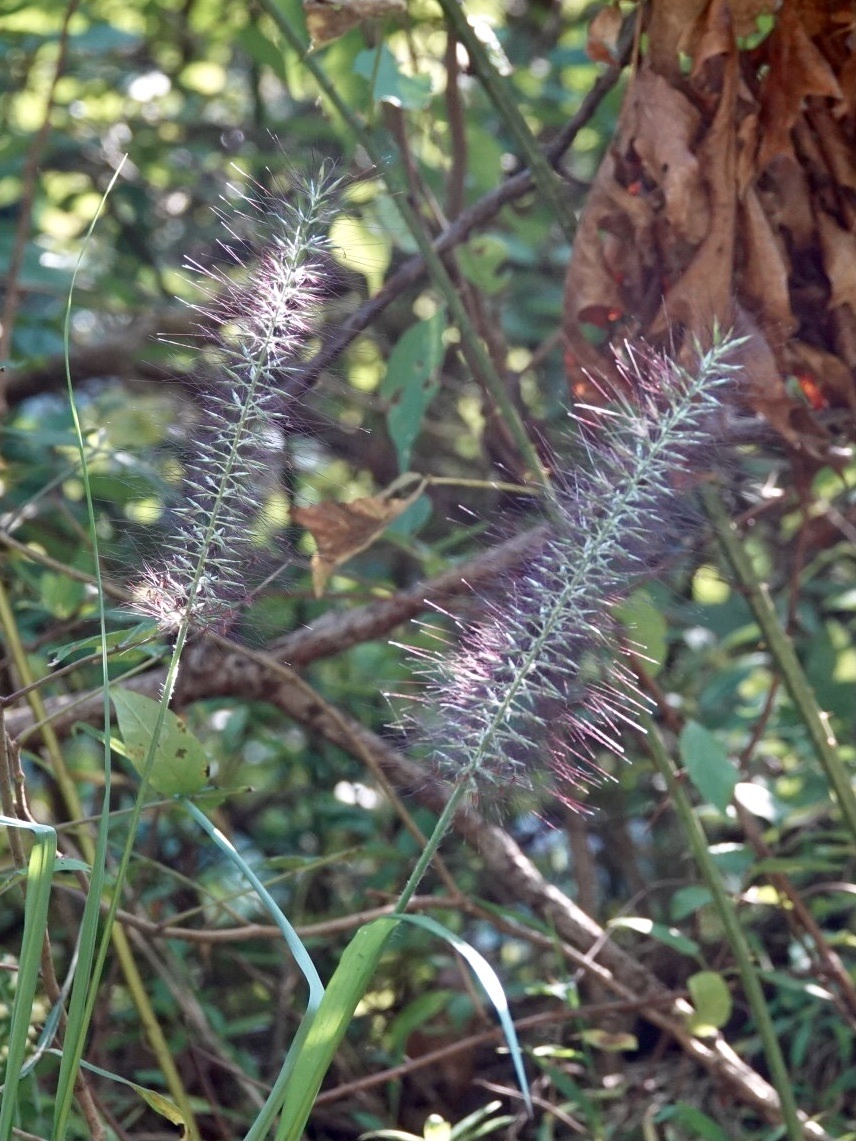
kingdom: Plantae
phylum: Tracheophyta
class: Liliopsida
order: Poales
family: Poaceae
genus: Cenchrus
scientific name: Cenchrus alopecuroides
